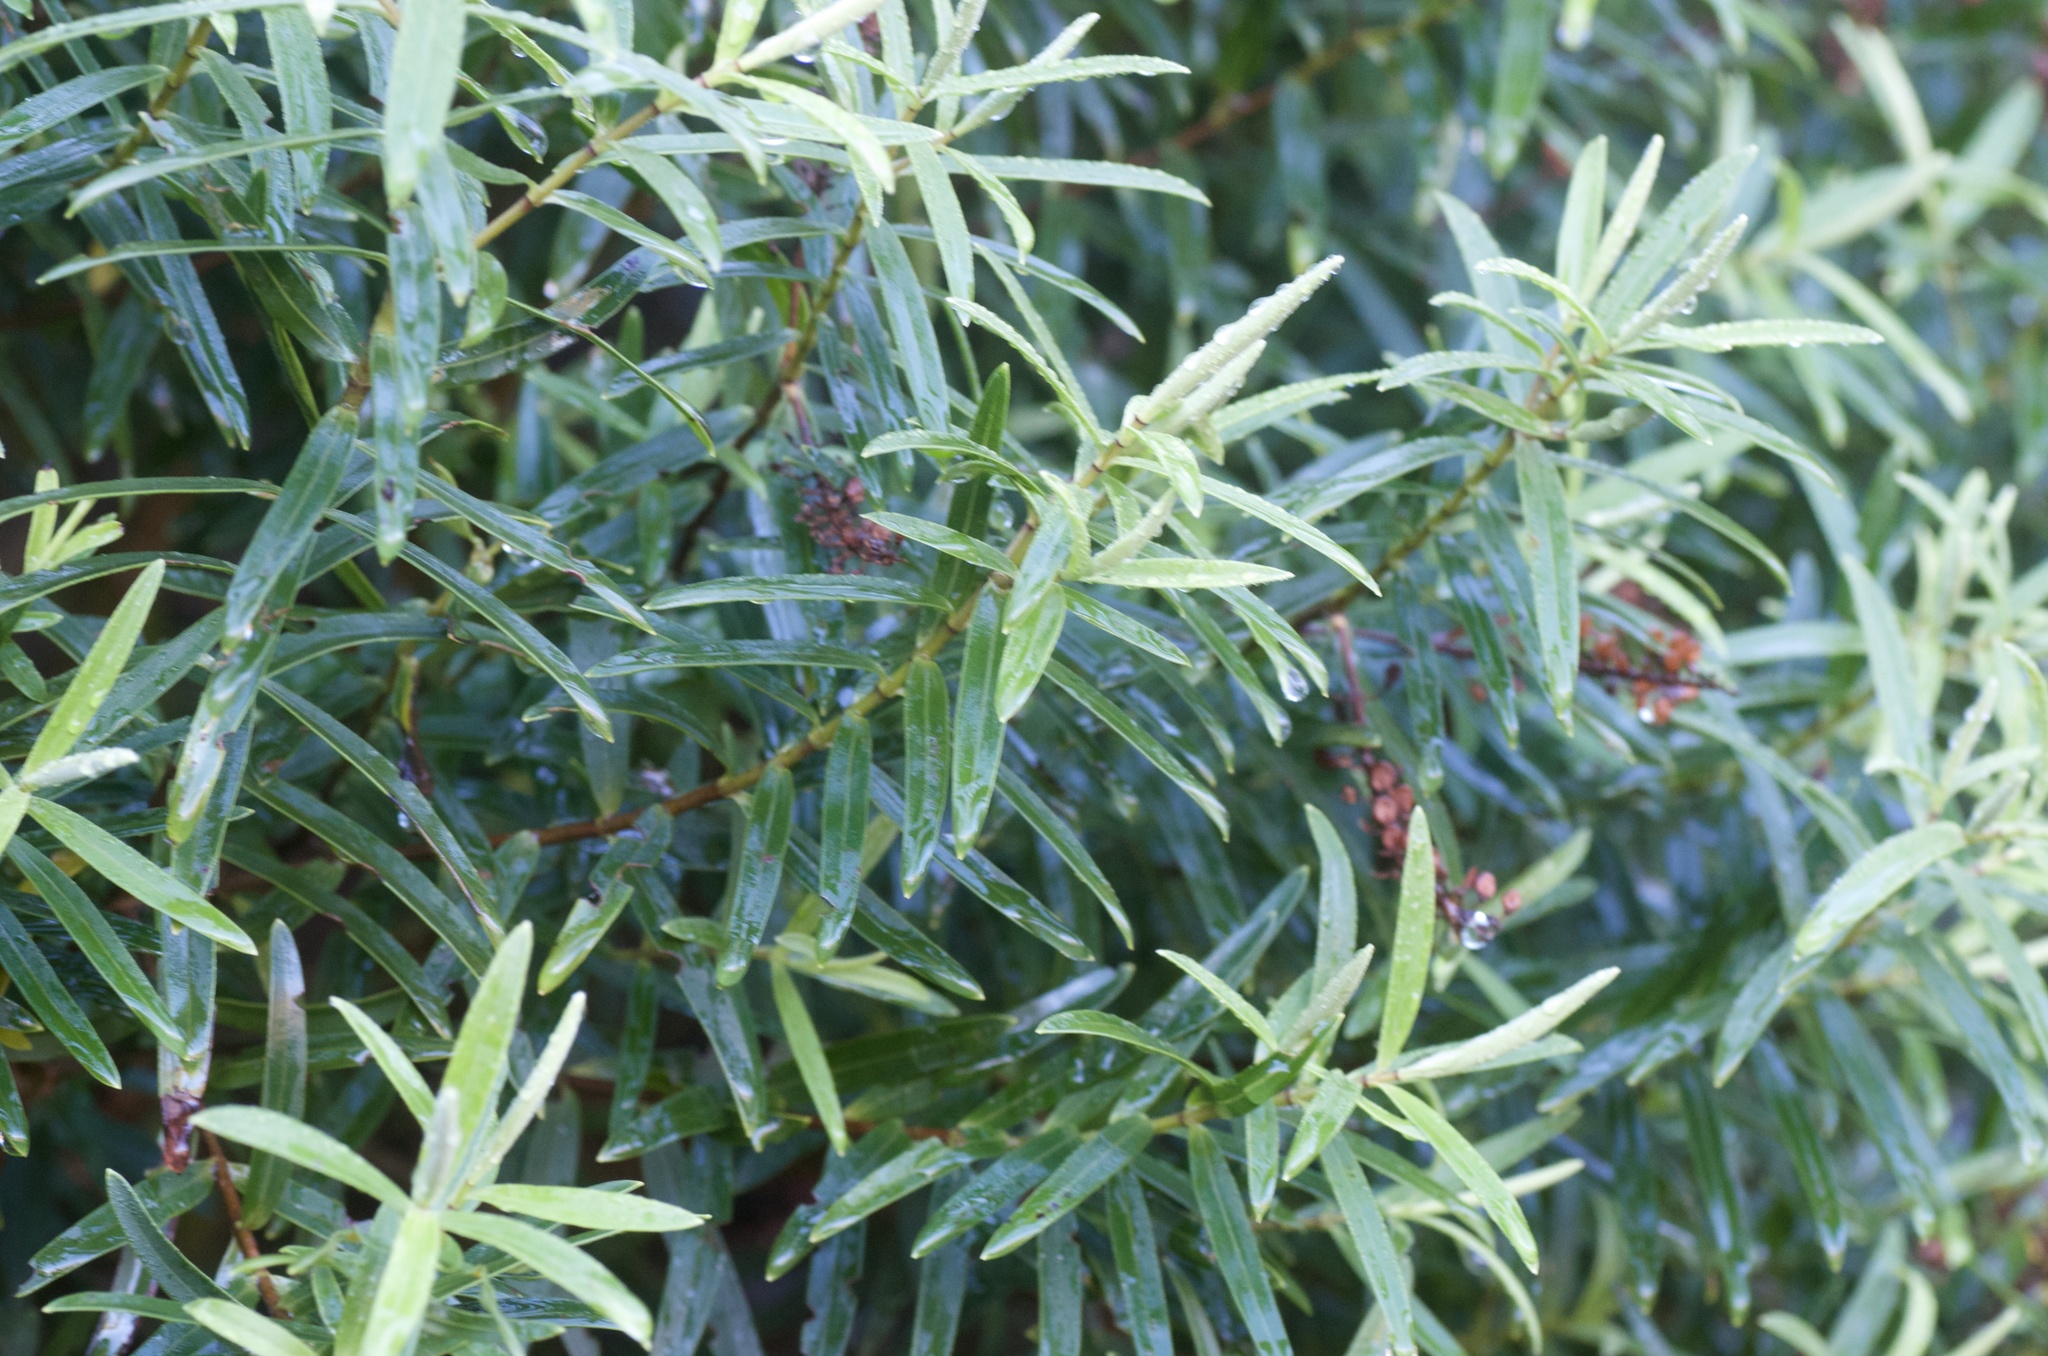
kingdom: Plantae
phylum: Tracheophyta
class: Magnoliopsida
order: Lamiales
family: Plantaginaceae
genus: Veronica
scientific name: Veronica strictissima
